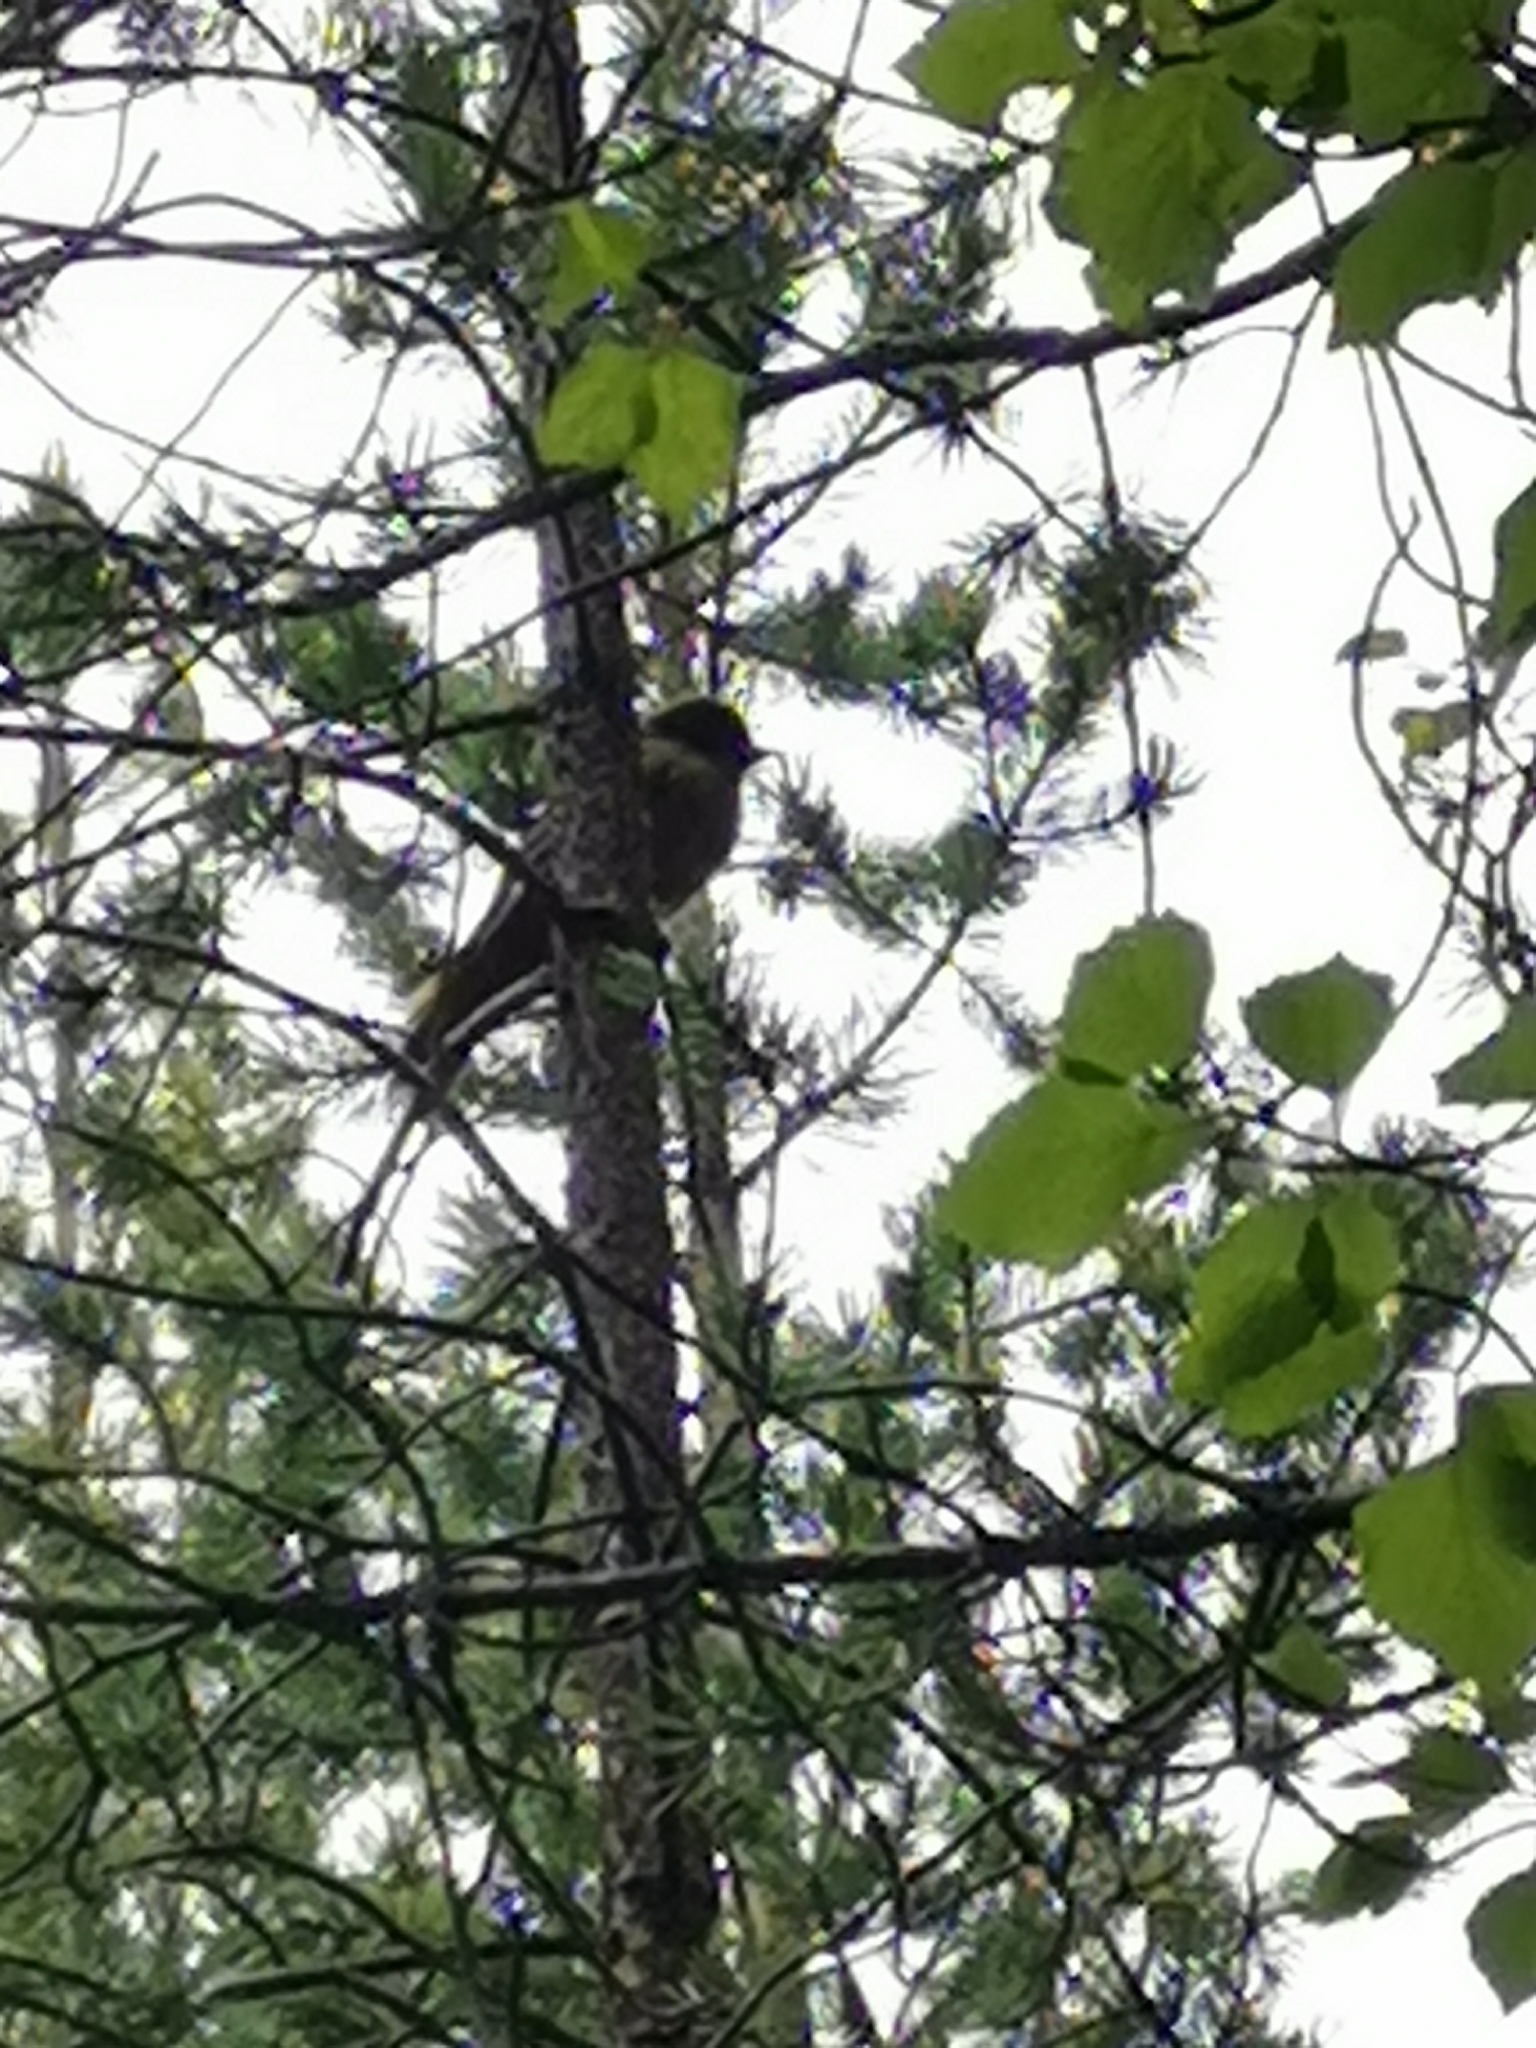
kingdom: Animalia
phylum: Chordata
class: Aves
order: Passeriformes
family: Corvidae
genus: Perisoreus
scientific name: Perisoreus infaustus
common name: Siberian jay
